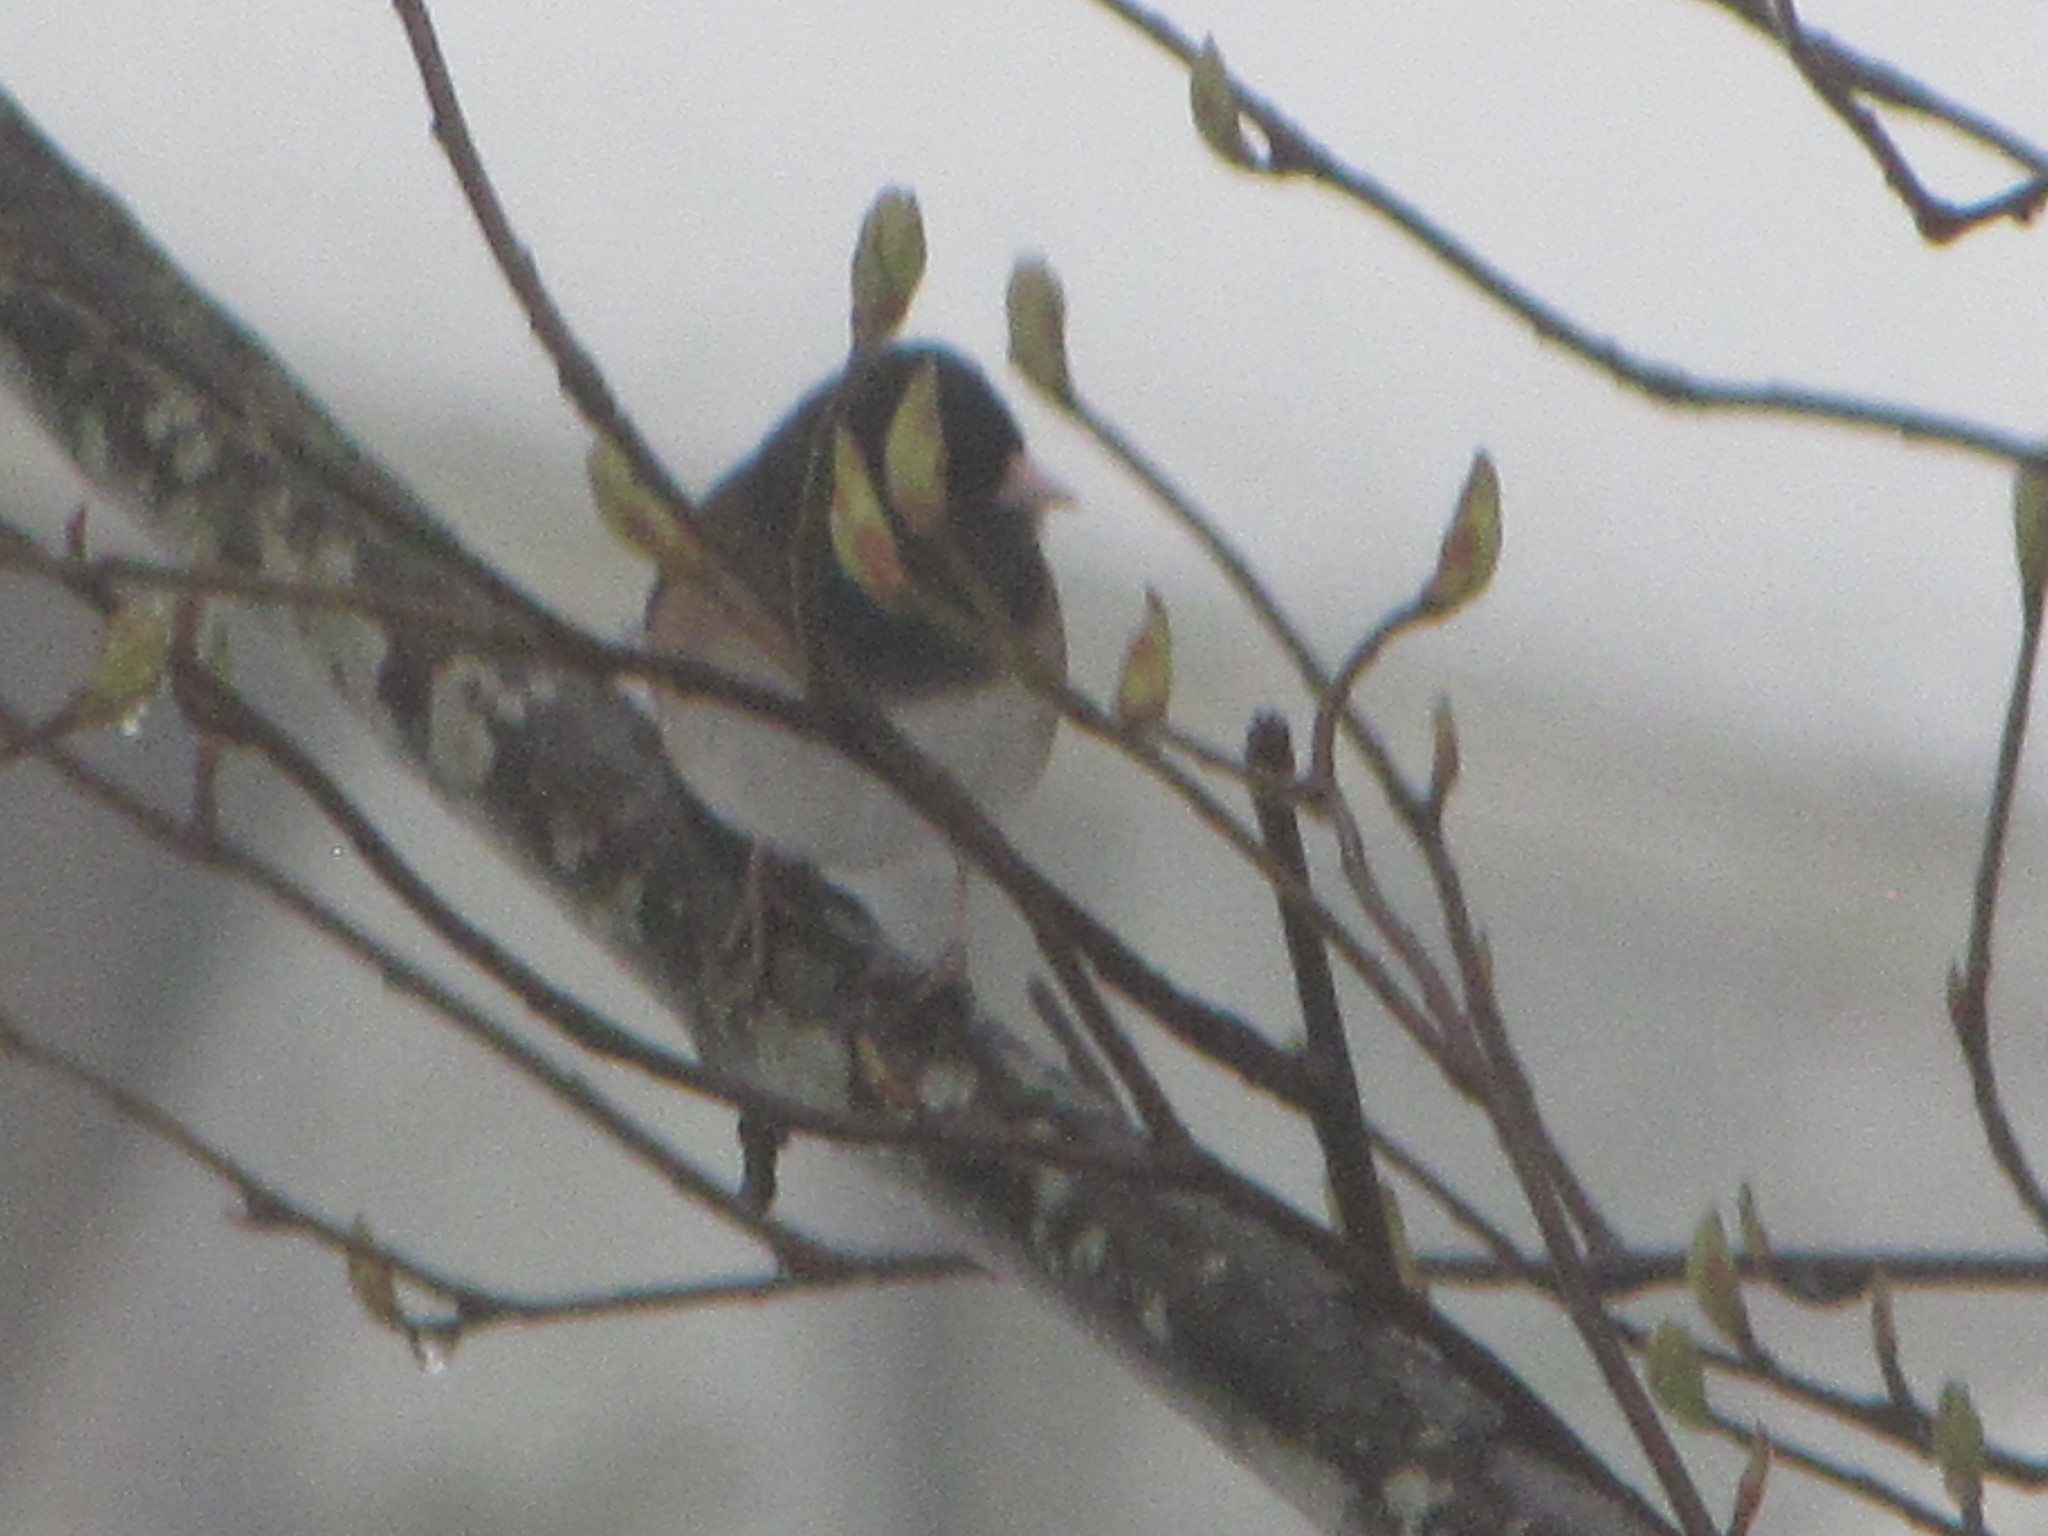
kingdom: Animalia
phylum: Chordata
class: Aves
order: Passeriformes
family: Passerellidae
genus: Junco
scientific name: Junco hyemalis
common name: Dark-eyed junco
